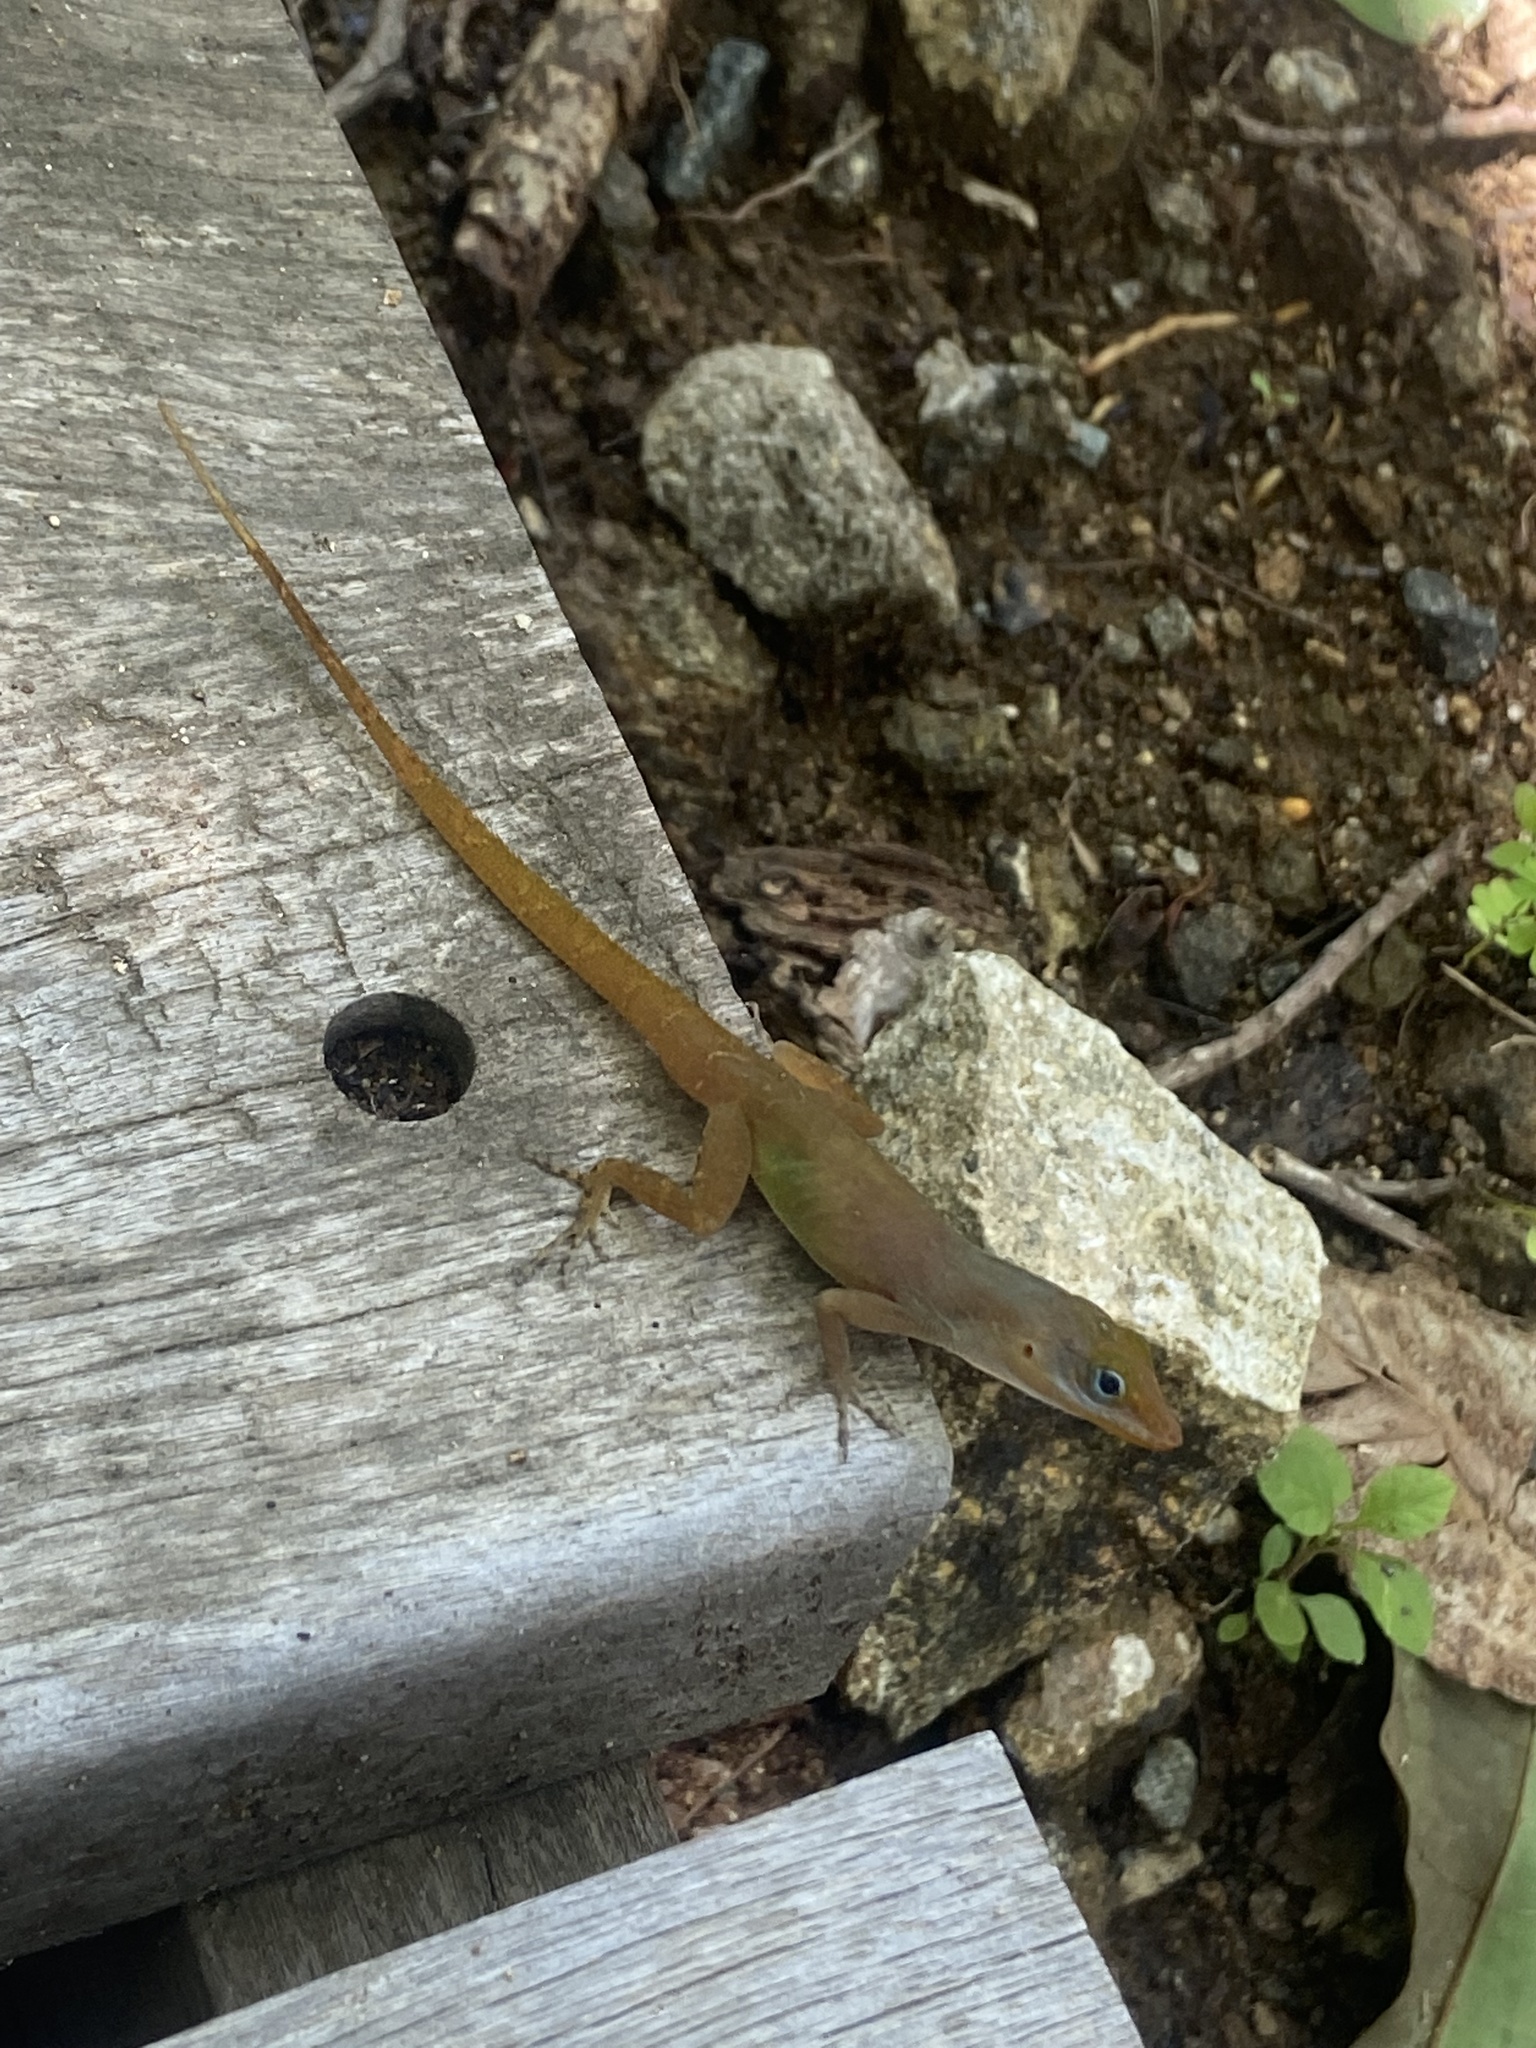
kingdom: Animalia
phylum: Chordata
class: Squamata
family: Dactyloidae
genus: Anolis
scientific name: Anolis wattsii
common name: Antigua bank bush anole
